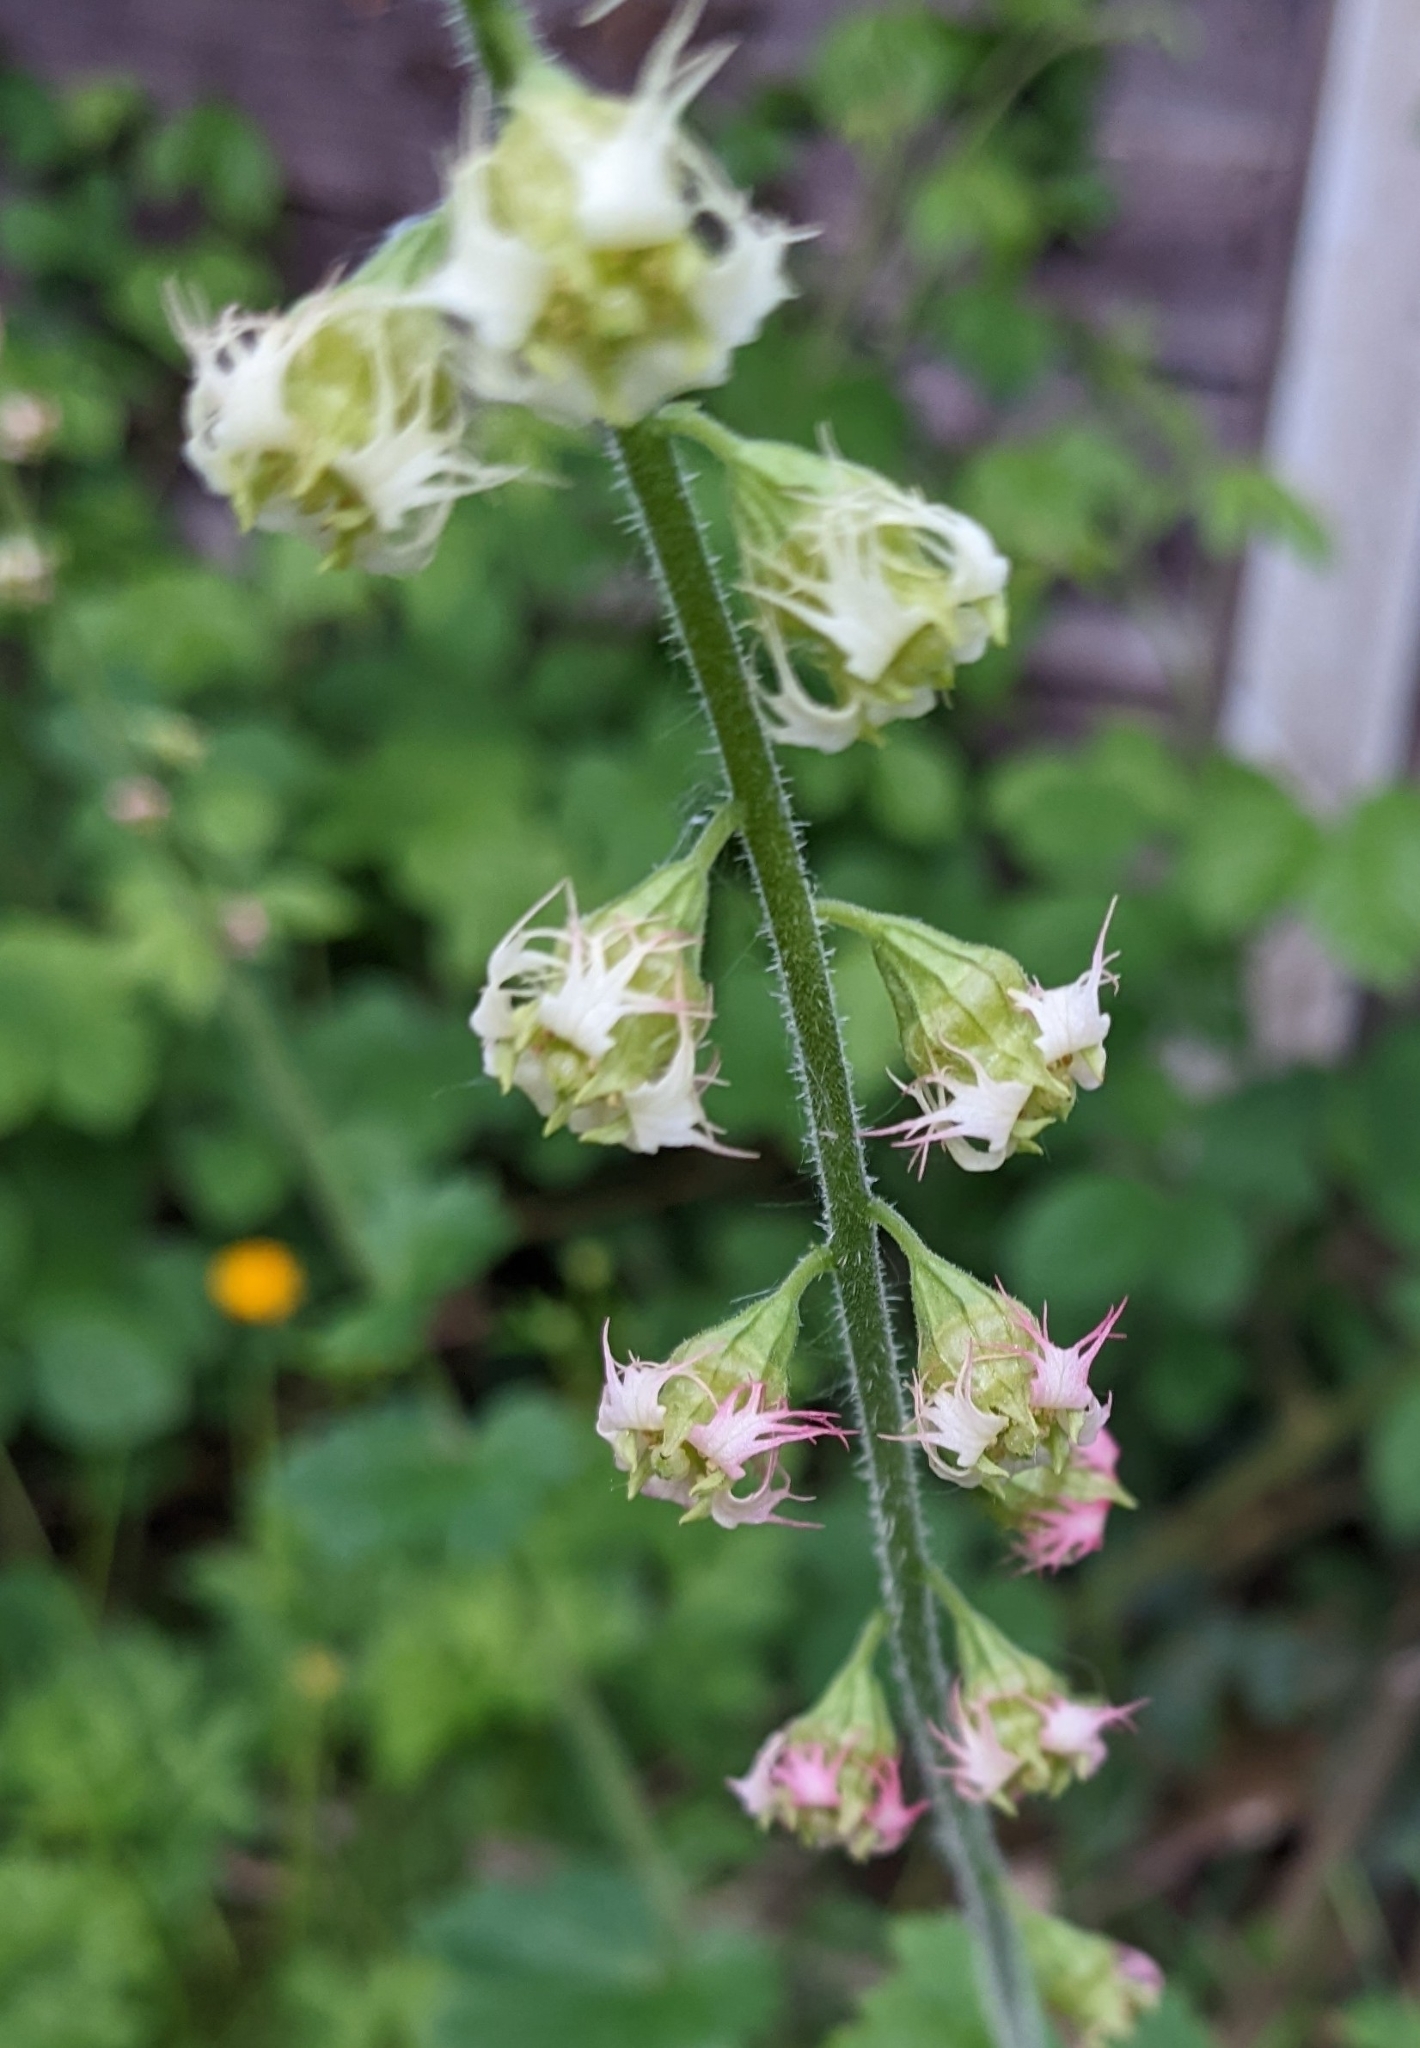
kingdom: Plantae
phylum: Tracheophyta
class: Magnoliopsida
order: Saxifragales
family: Saxifragaceae
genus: Tellima
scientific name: Tellima grandiflora
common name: Fringecups
